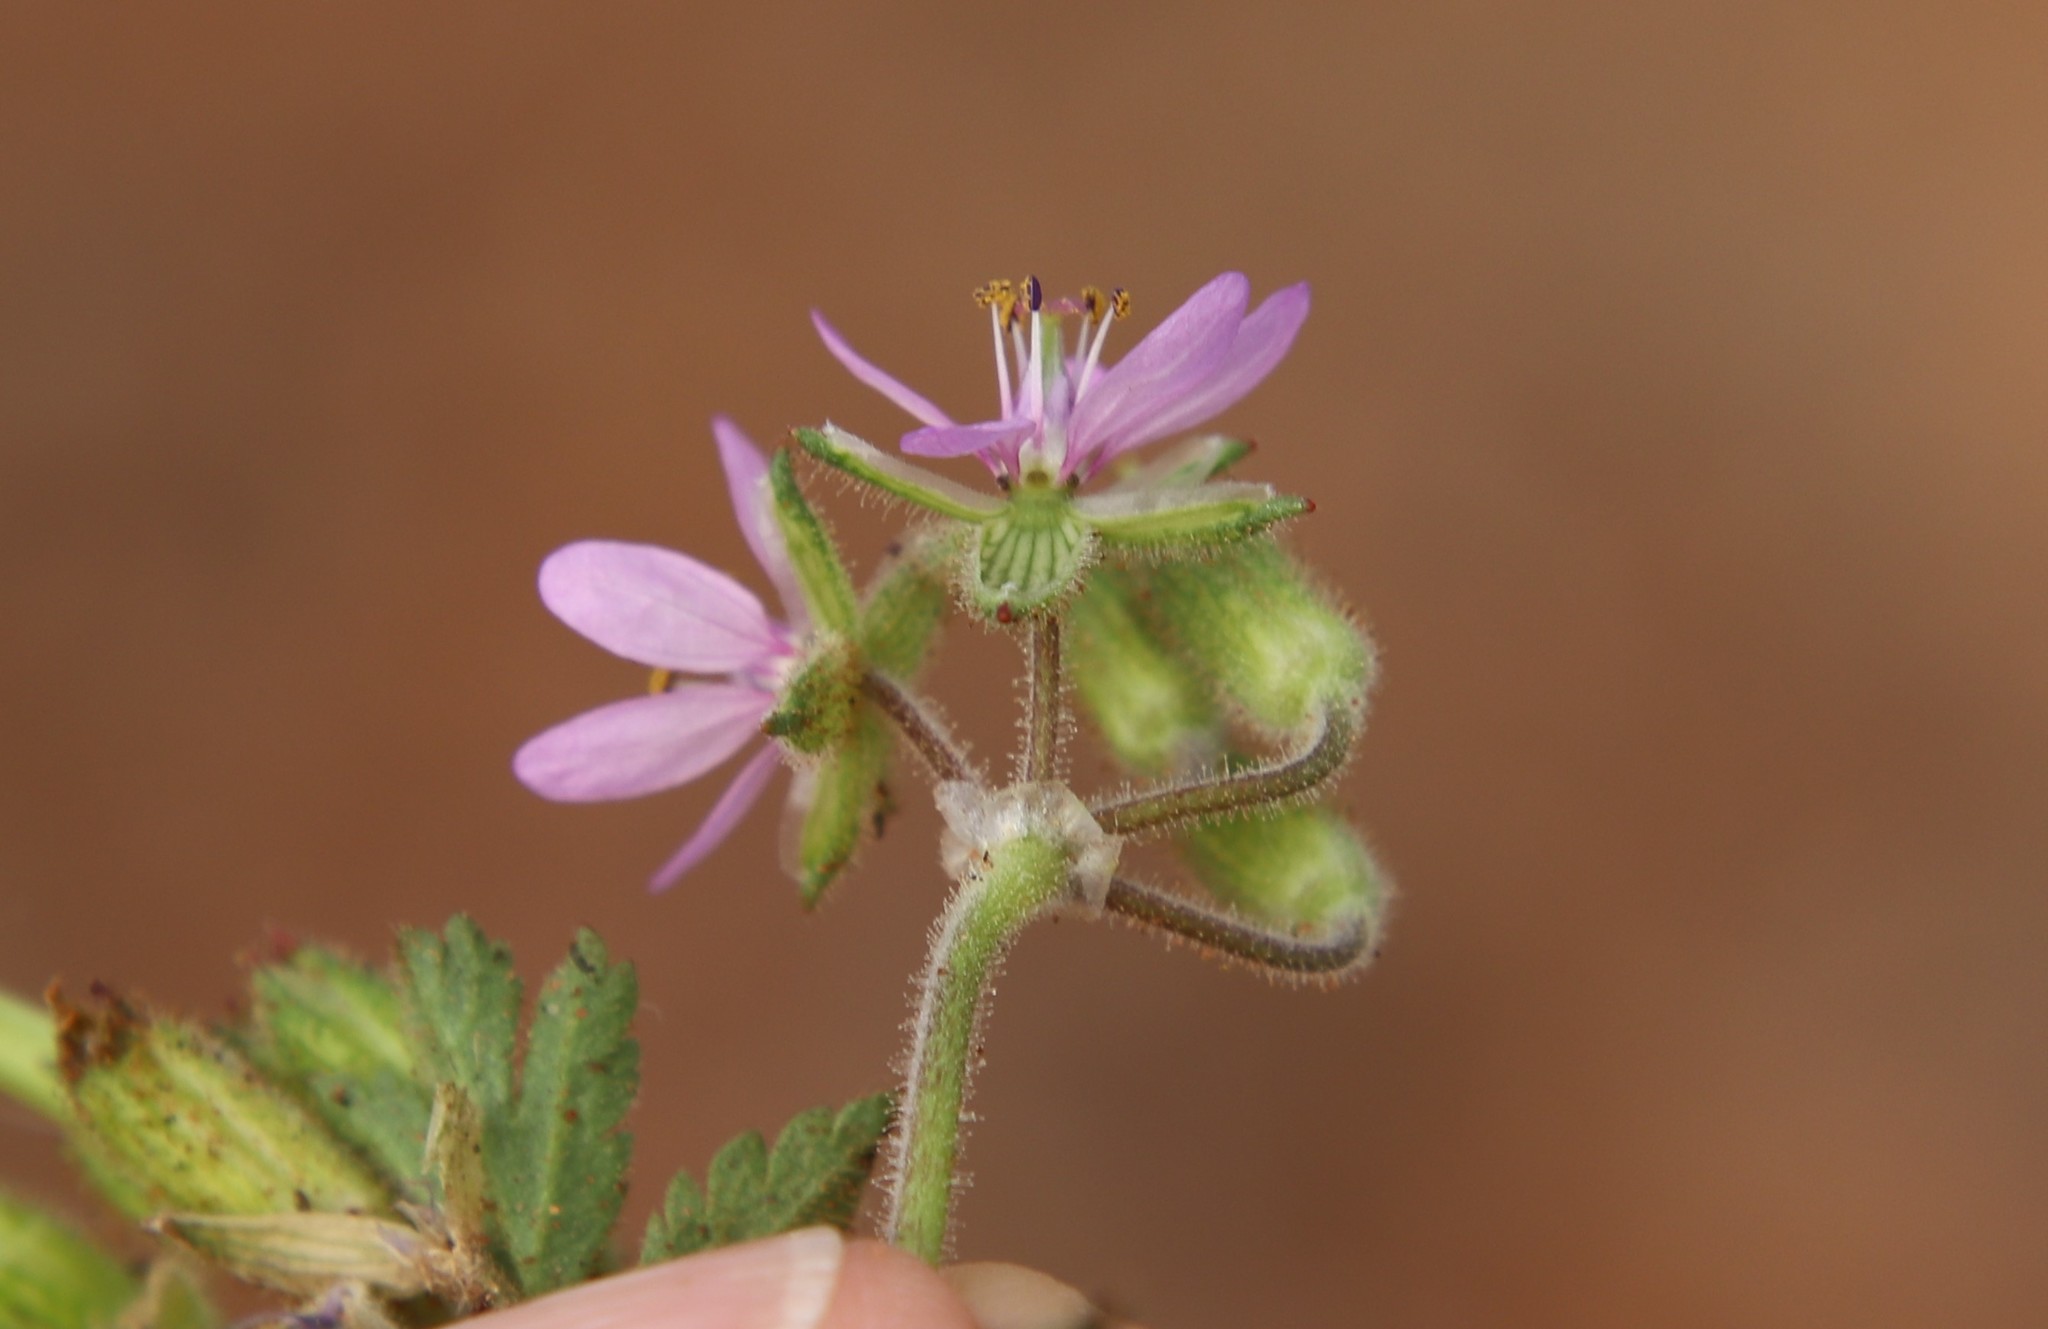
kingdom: Plantae
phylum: Tracheophyta
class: Magnoliopsida
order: Geraniales
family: Geraniaceae
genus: Erodium
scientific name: Erodium moschatum
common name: Musk stork's-bill
